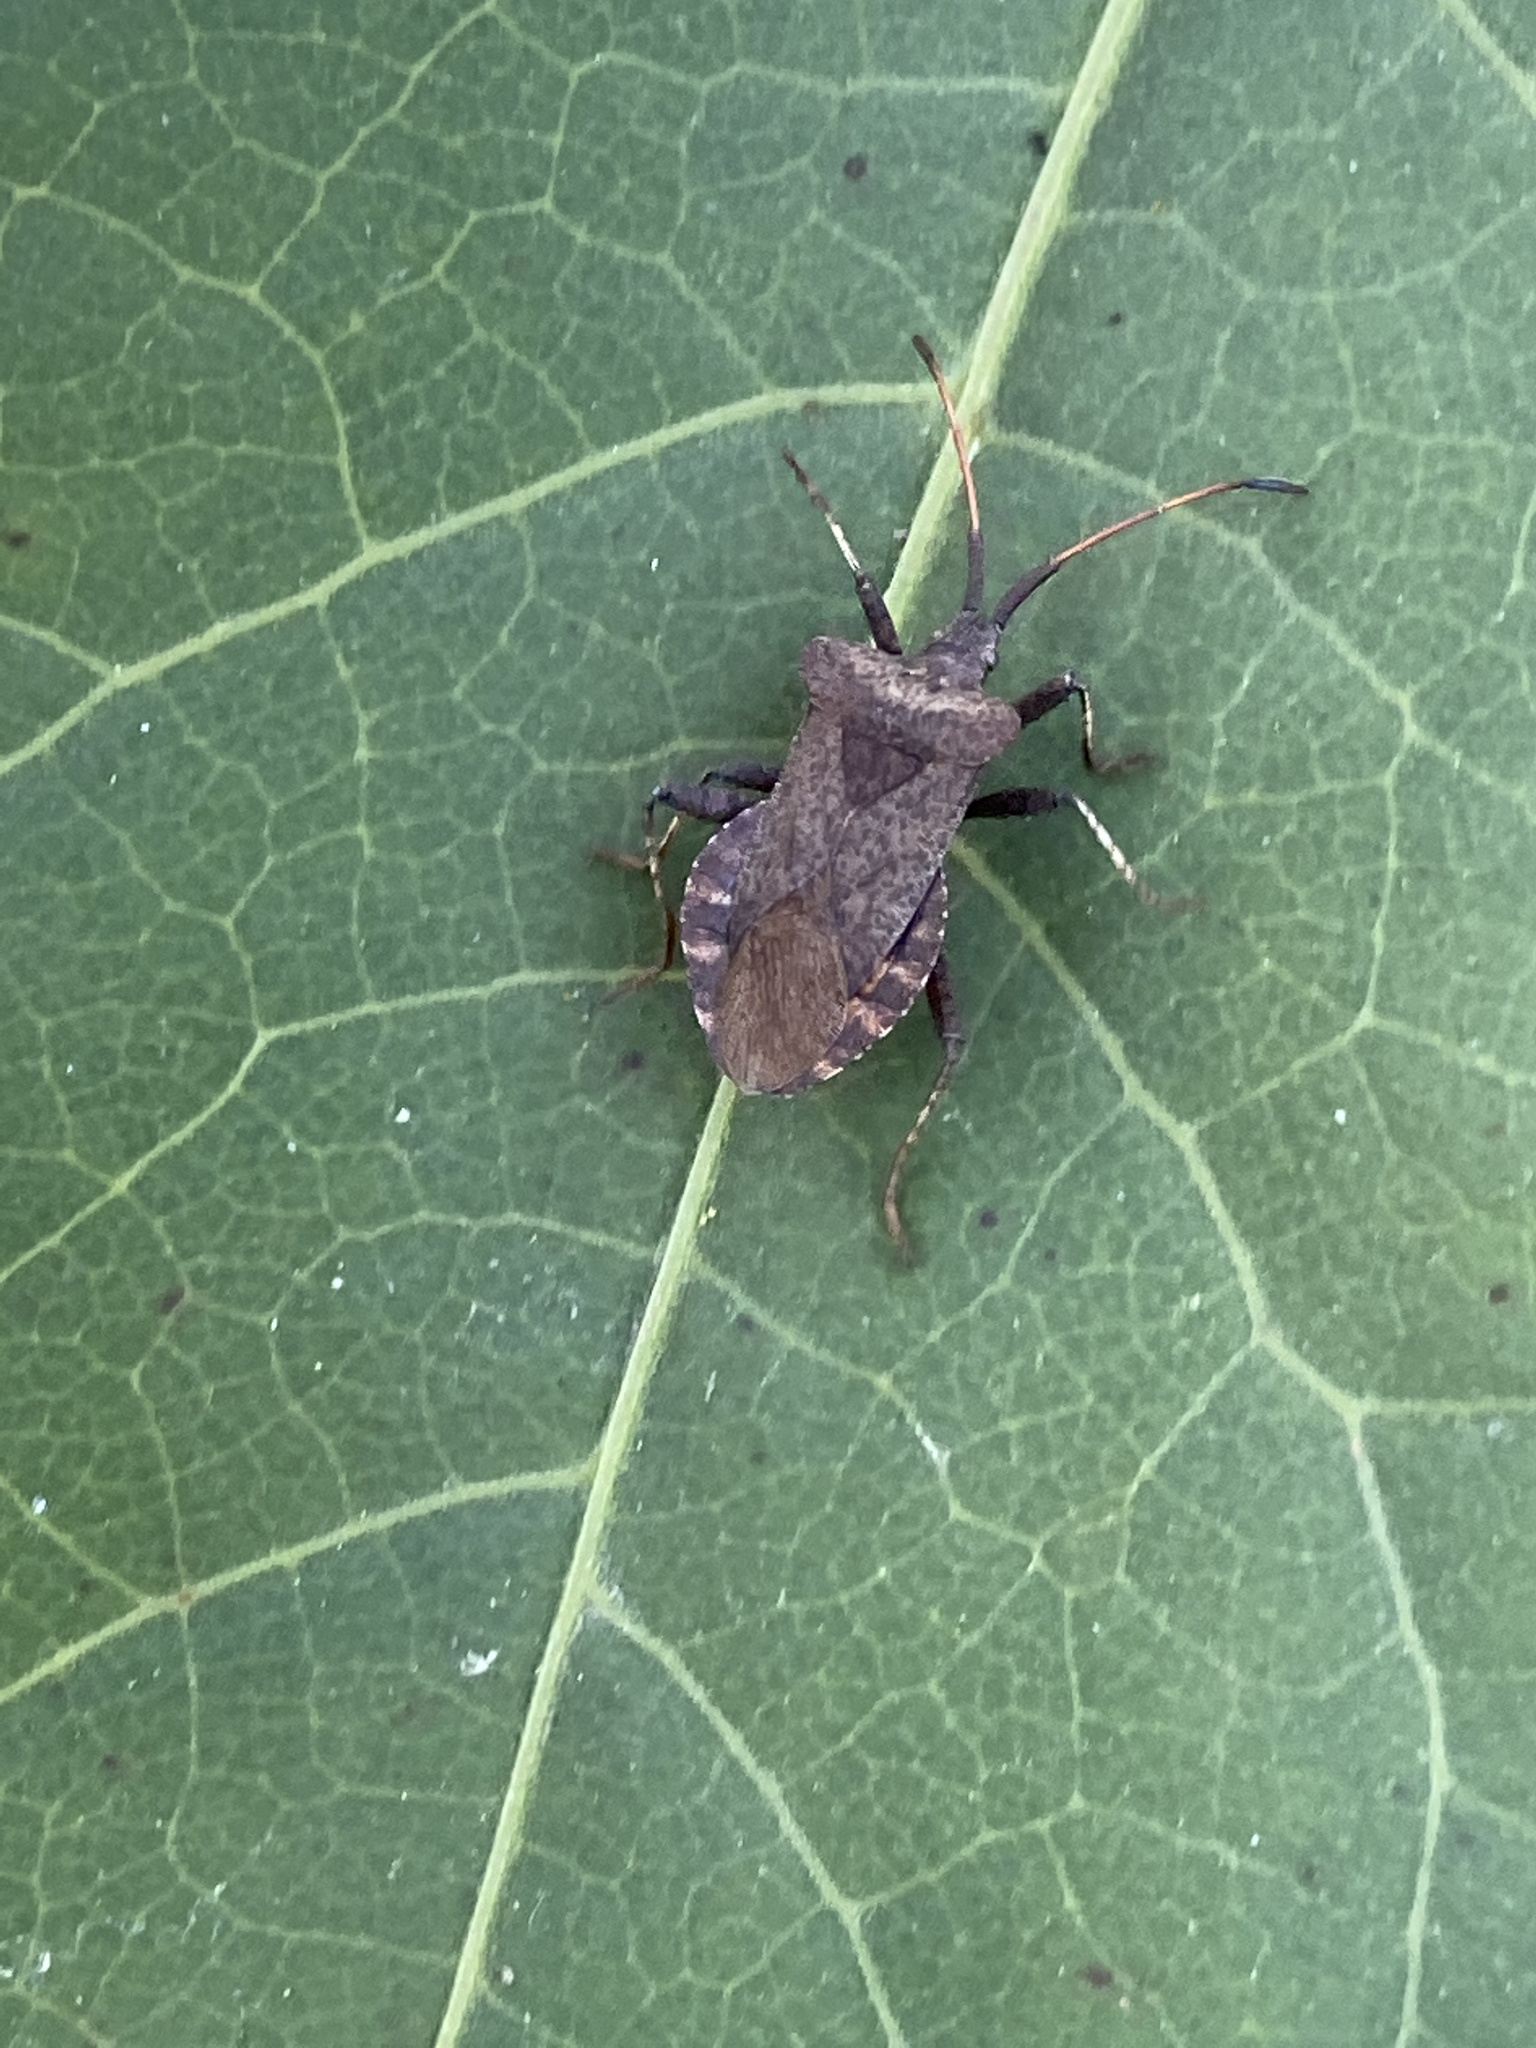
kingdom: Animalia
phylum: Arthropoda
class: Insecta
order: Hemiptera
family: Coreidae
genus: Coreus
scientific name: Coreus marginatus
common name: Dock bug
